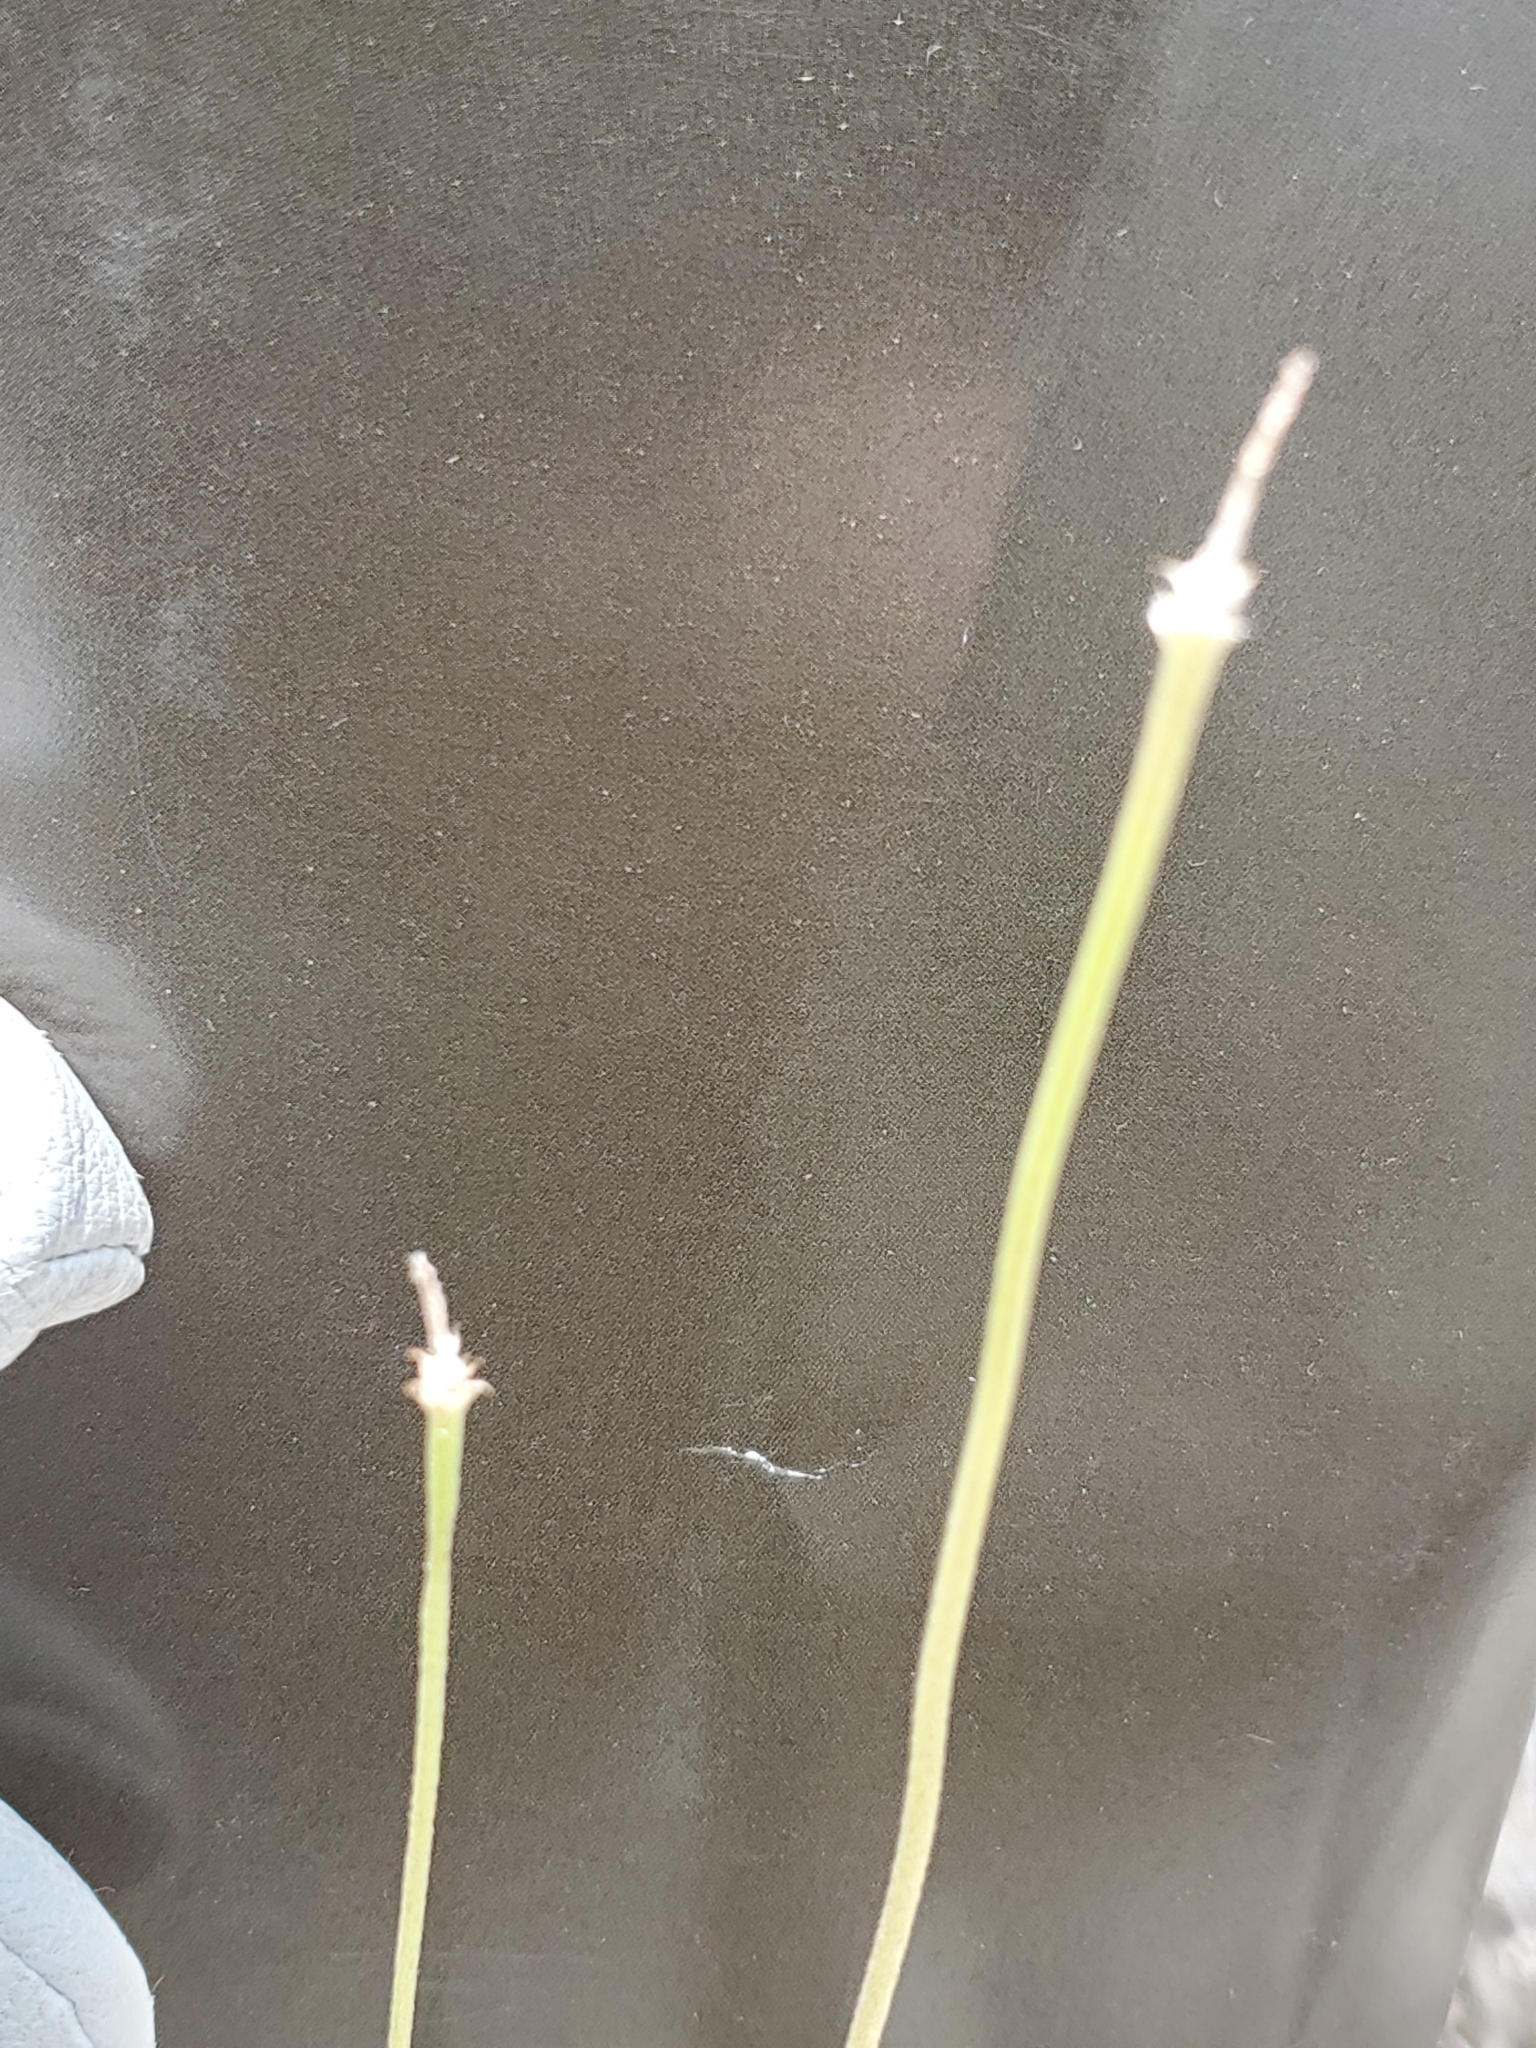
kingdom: Plantae
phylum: Tracheophyta
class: Magnoliopsida
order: Ranunculales
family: Ranunculaceae
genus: Anemone
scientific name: Anemone edwardsiana
